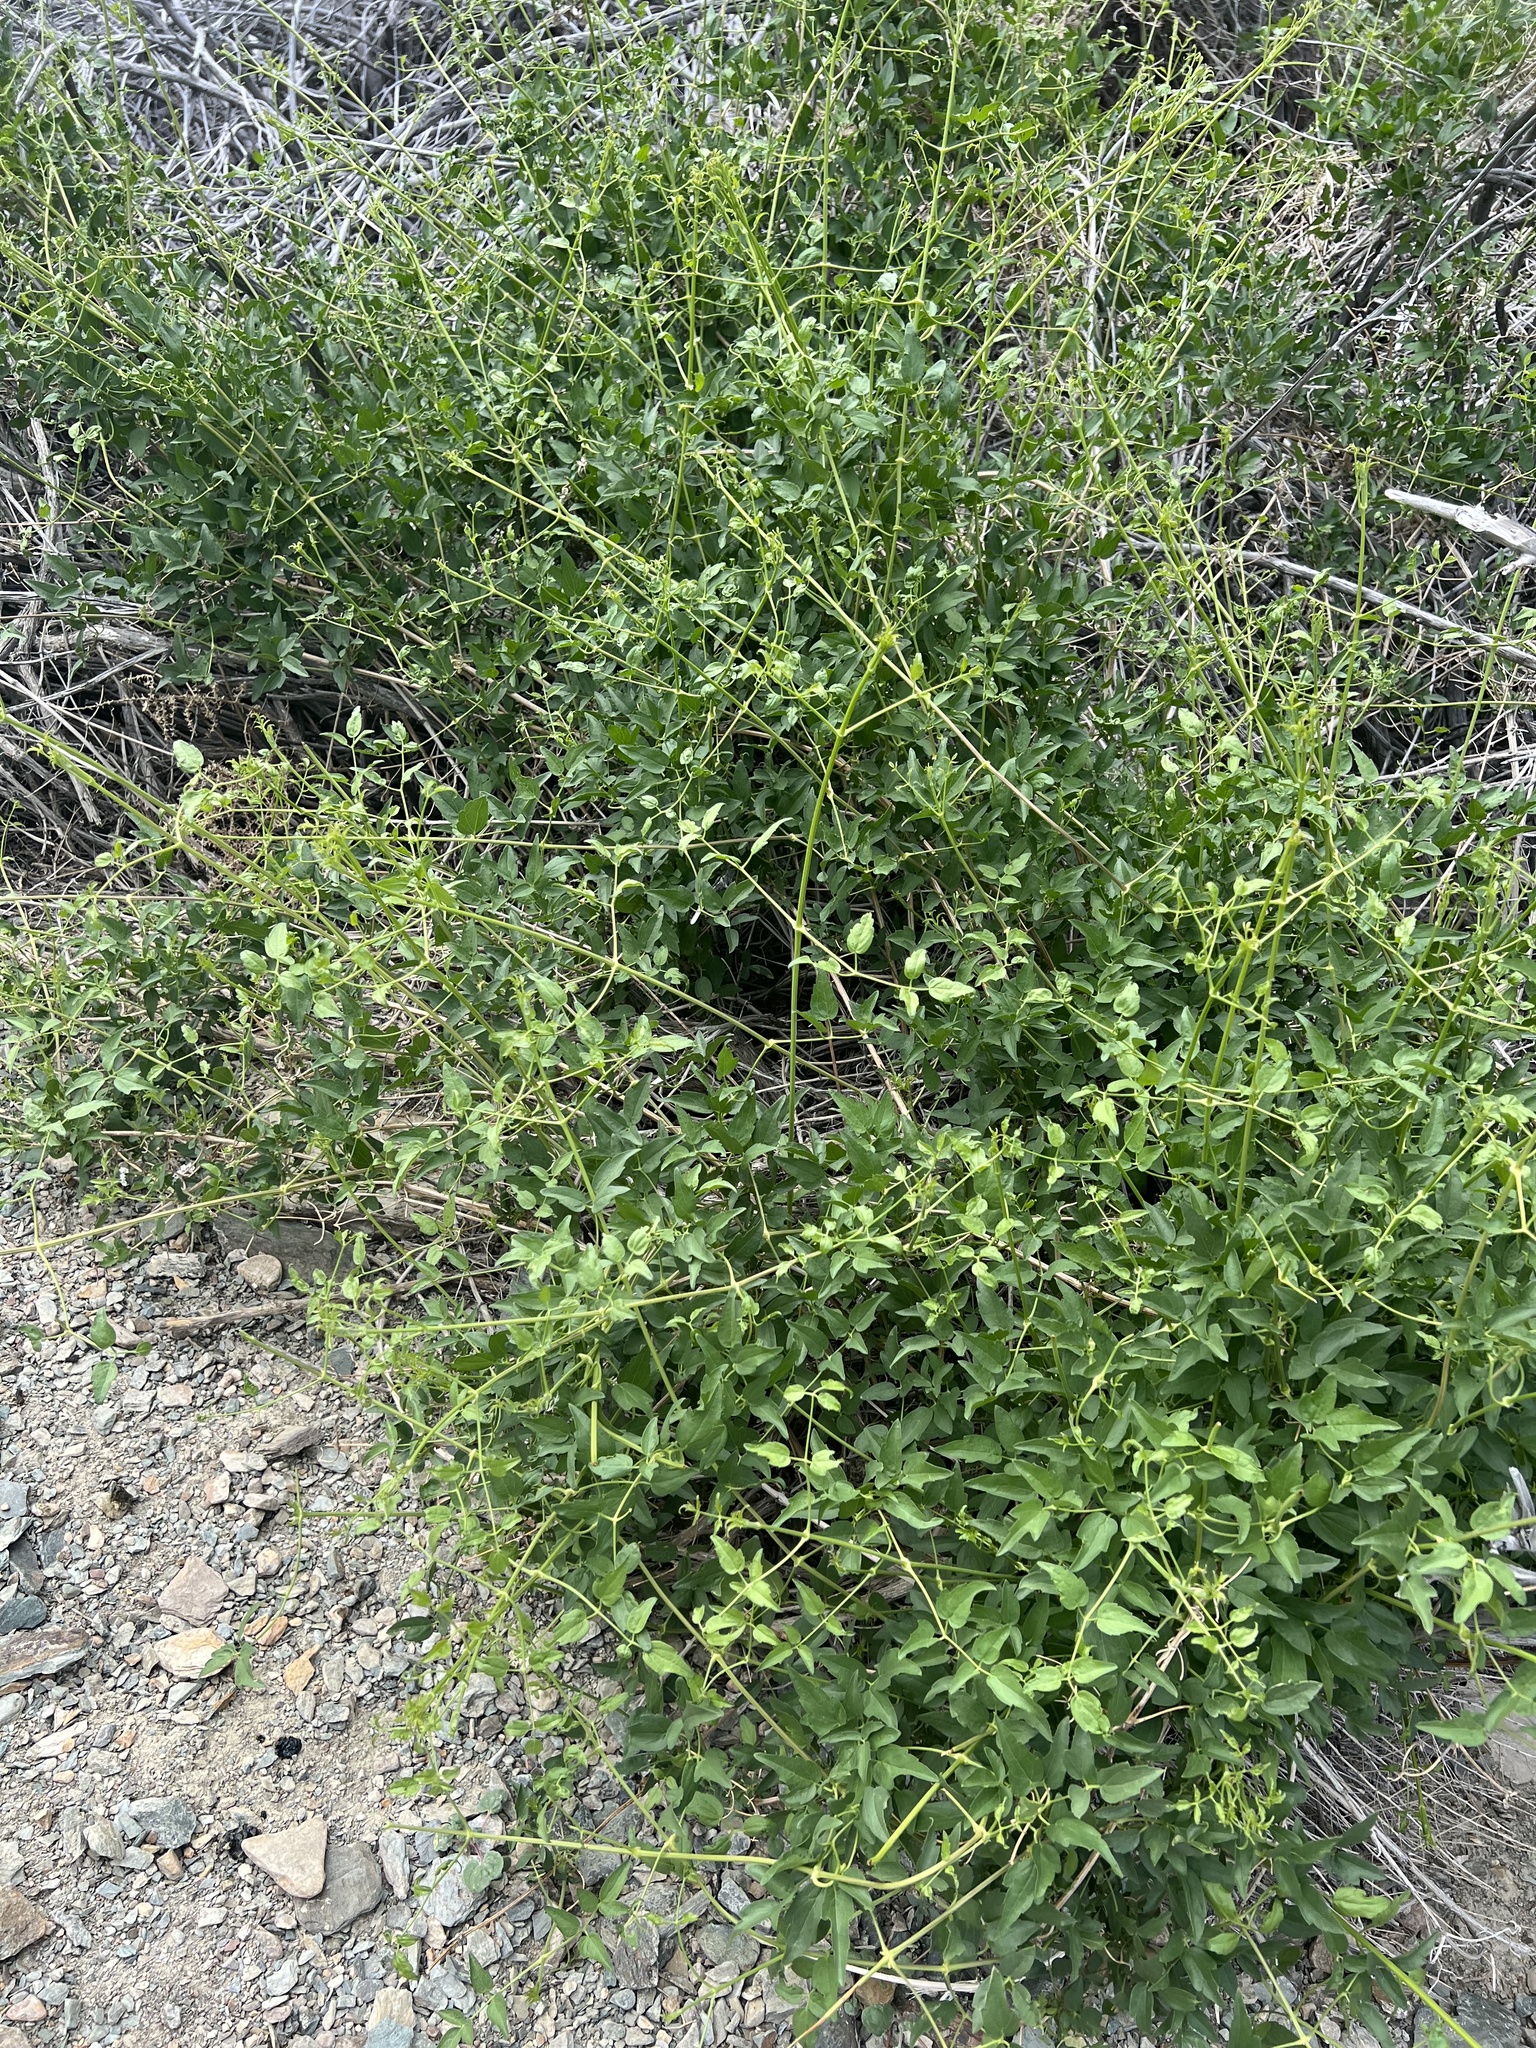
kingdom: Plantae
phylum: Tracheophyta
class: Magnoliopsida
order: Ranunculales
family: Ranunculaceae
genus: Clematis
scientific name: Clematis ligusticifolia
